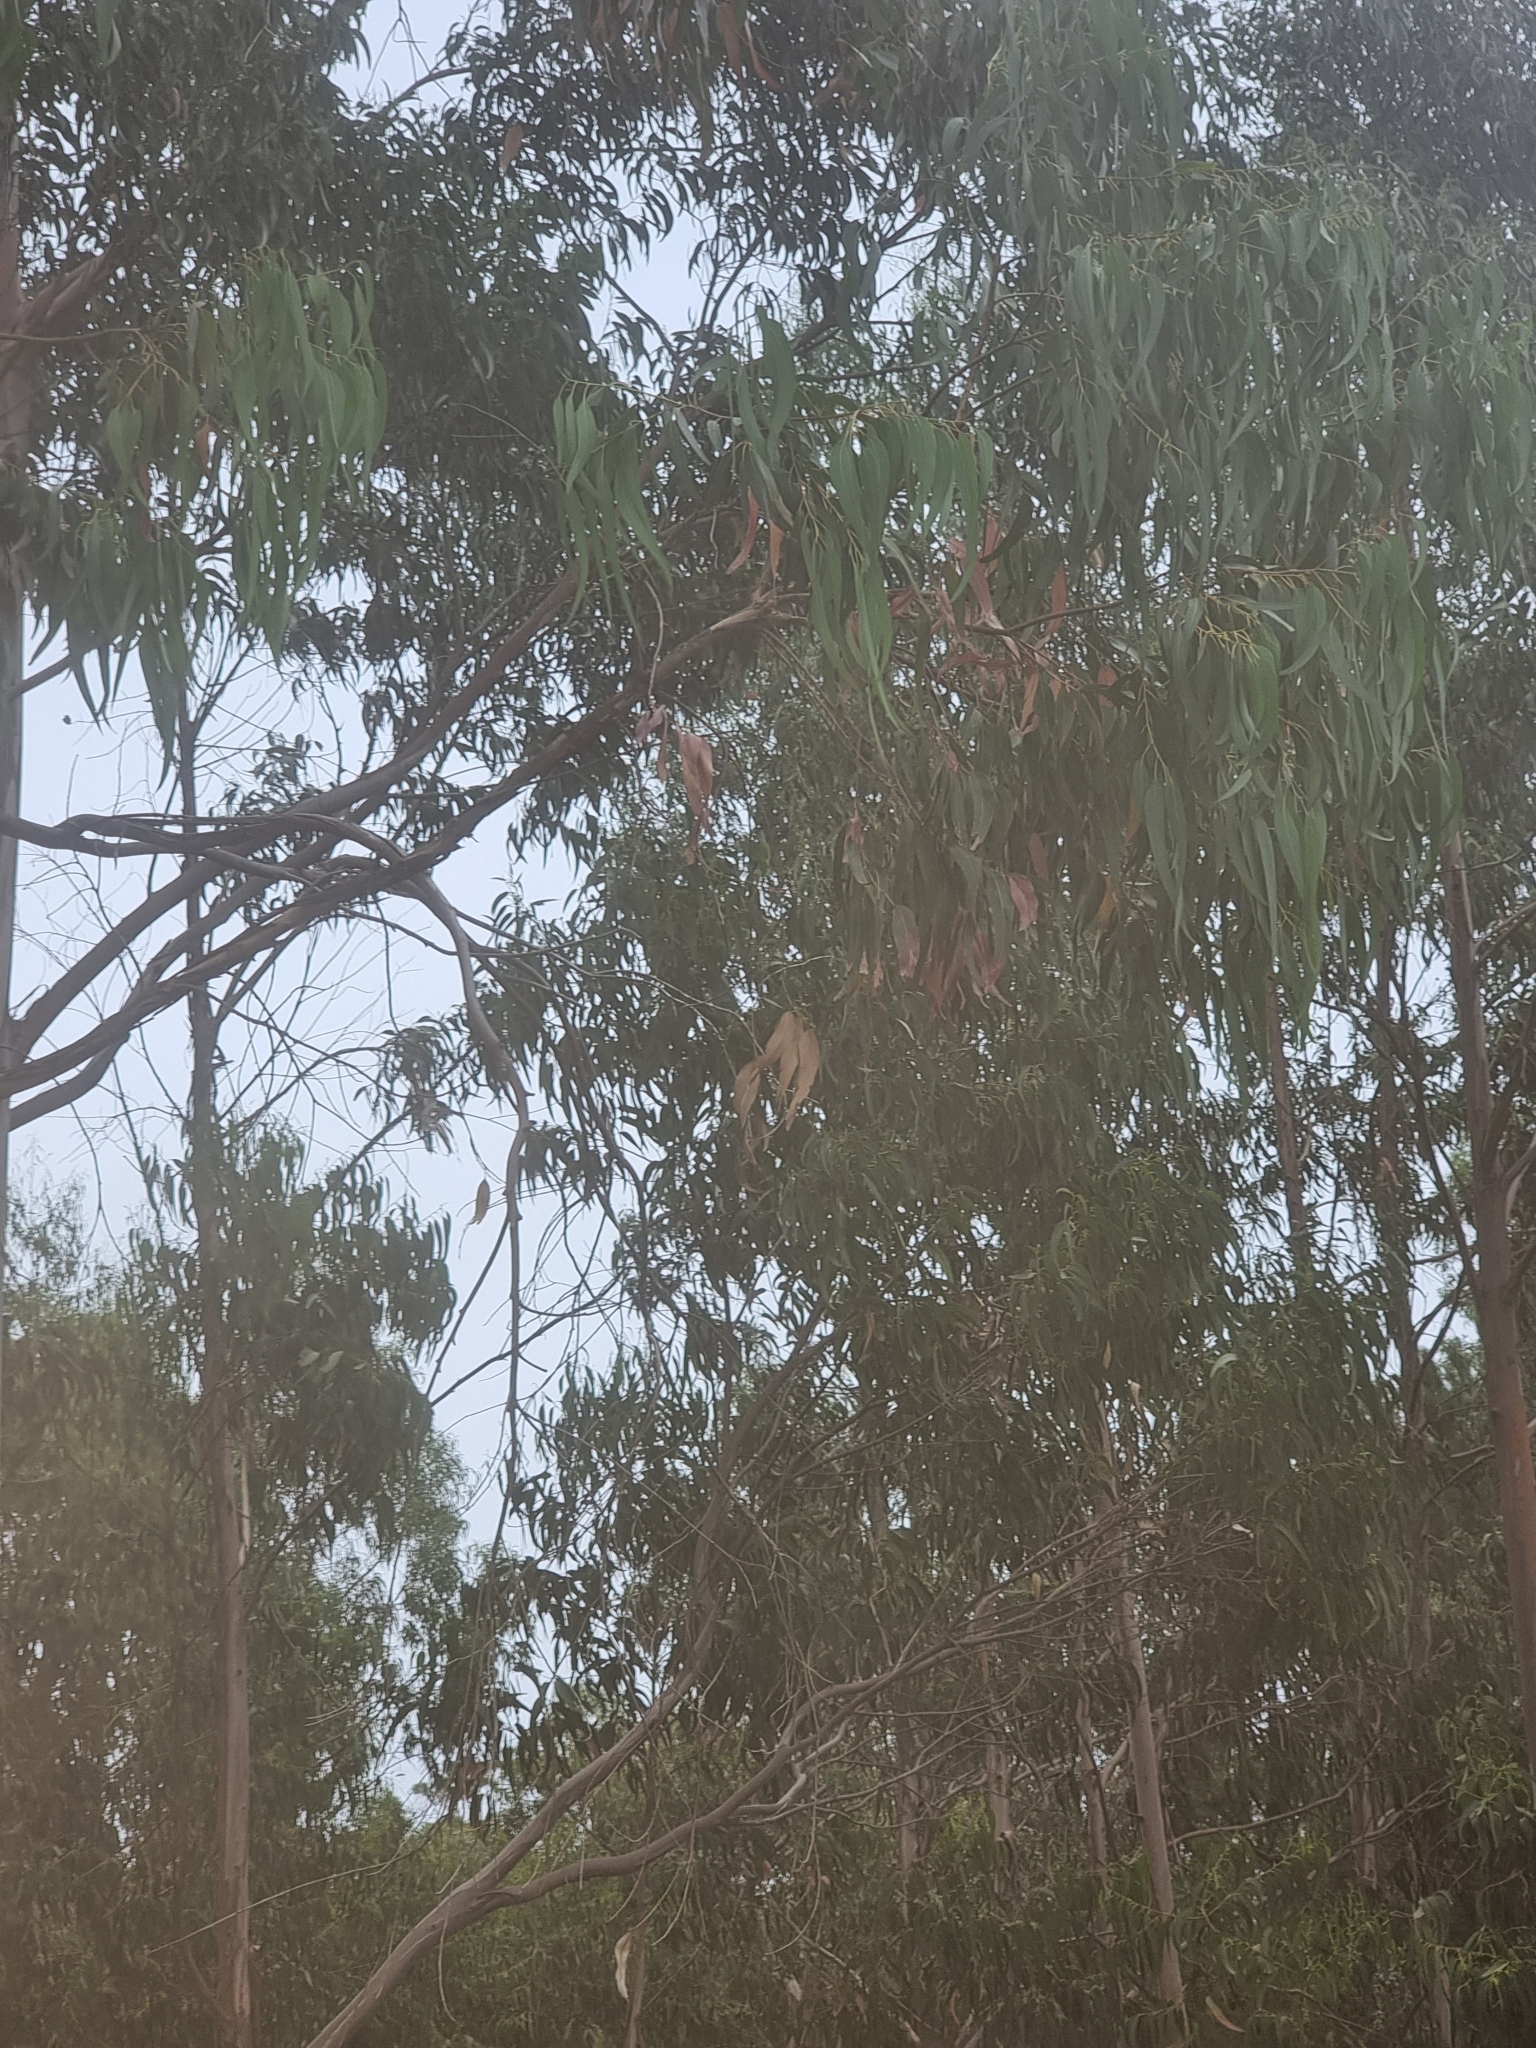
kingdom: Plantae
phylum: Tracheophyta
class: Magnoliopsida
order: Myrtales
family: Myrtaceae
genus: Eucalyptus
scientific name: Eucalyptus globulus
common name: Southern blue-gum
